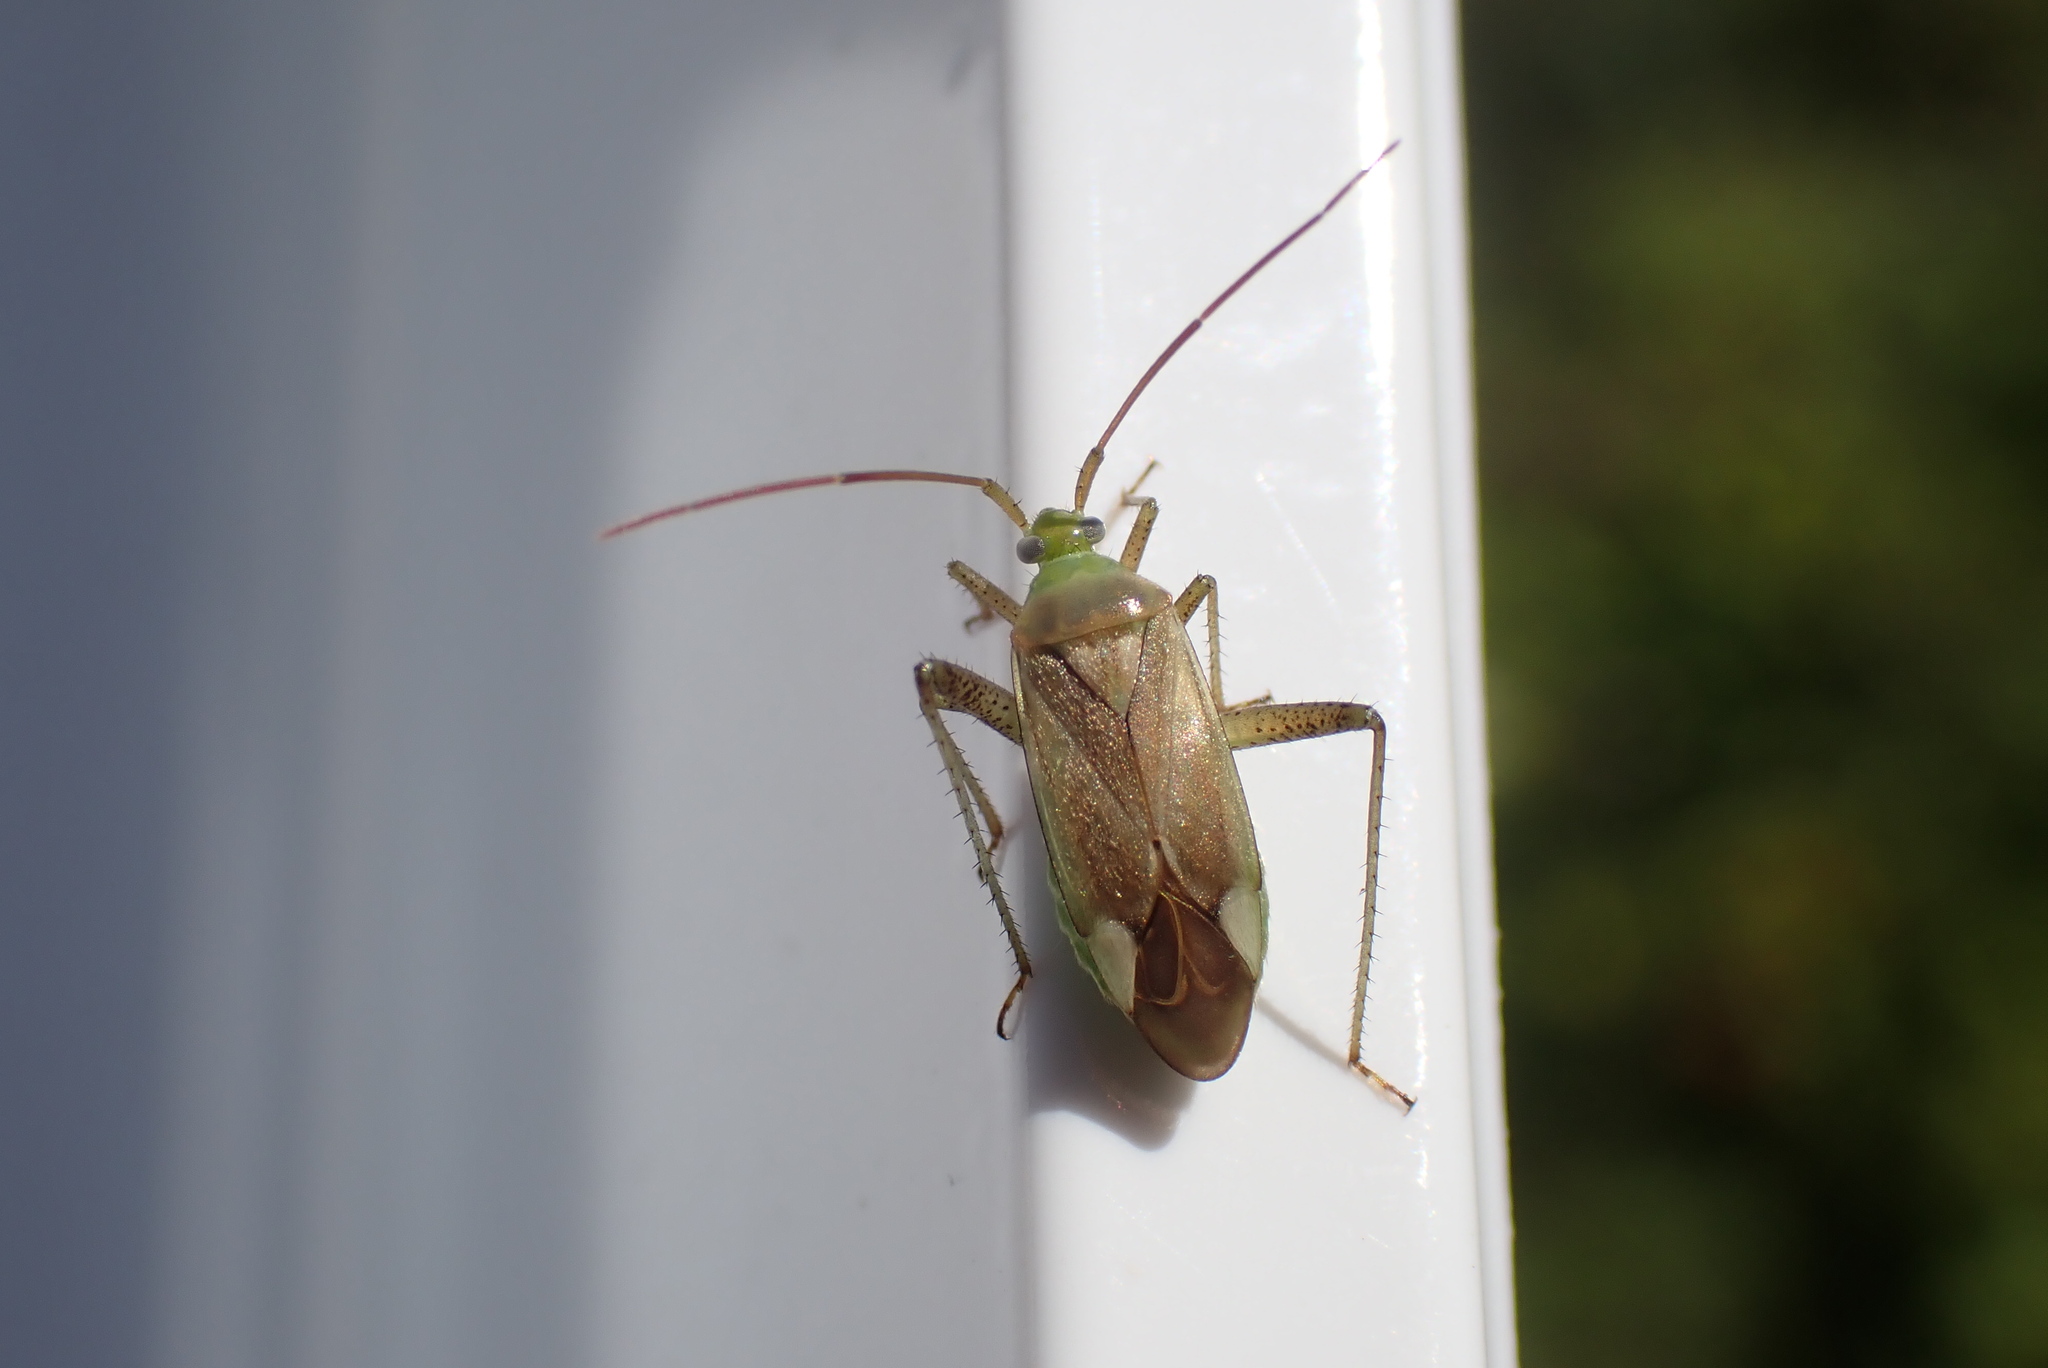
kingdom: Animalia
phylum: Arthropoda
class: Insecta
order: Hemiptera
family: Miridae
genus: Adelphocoris
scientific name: Adelphocoris lineolatus
